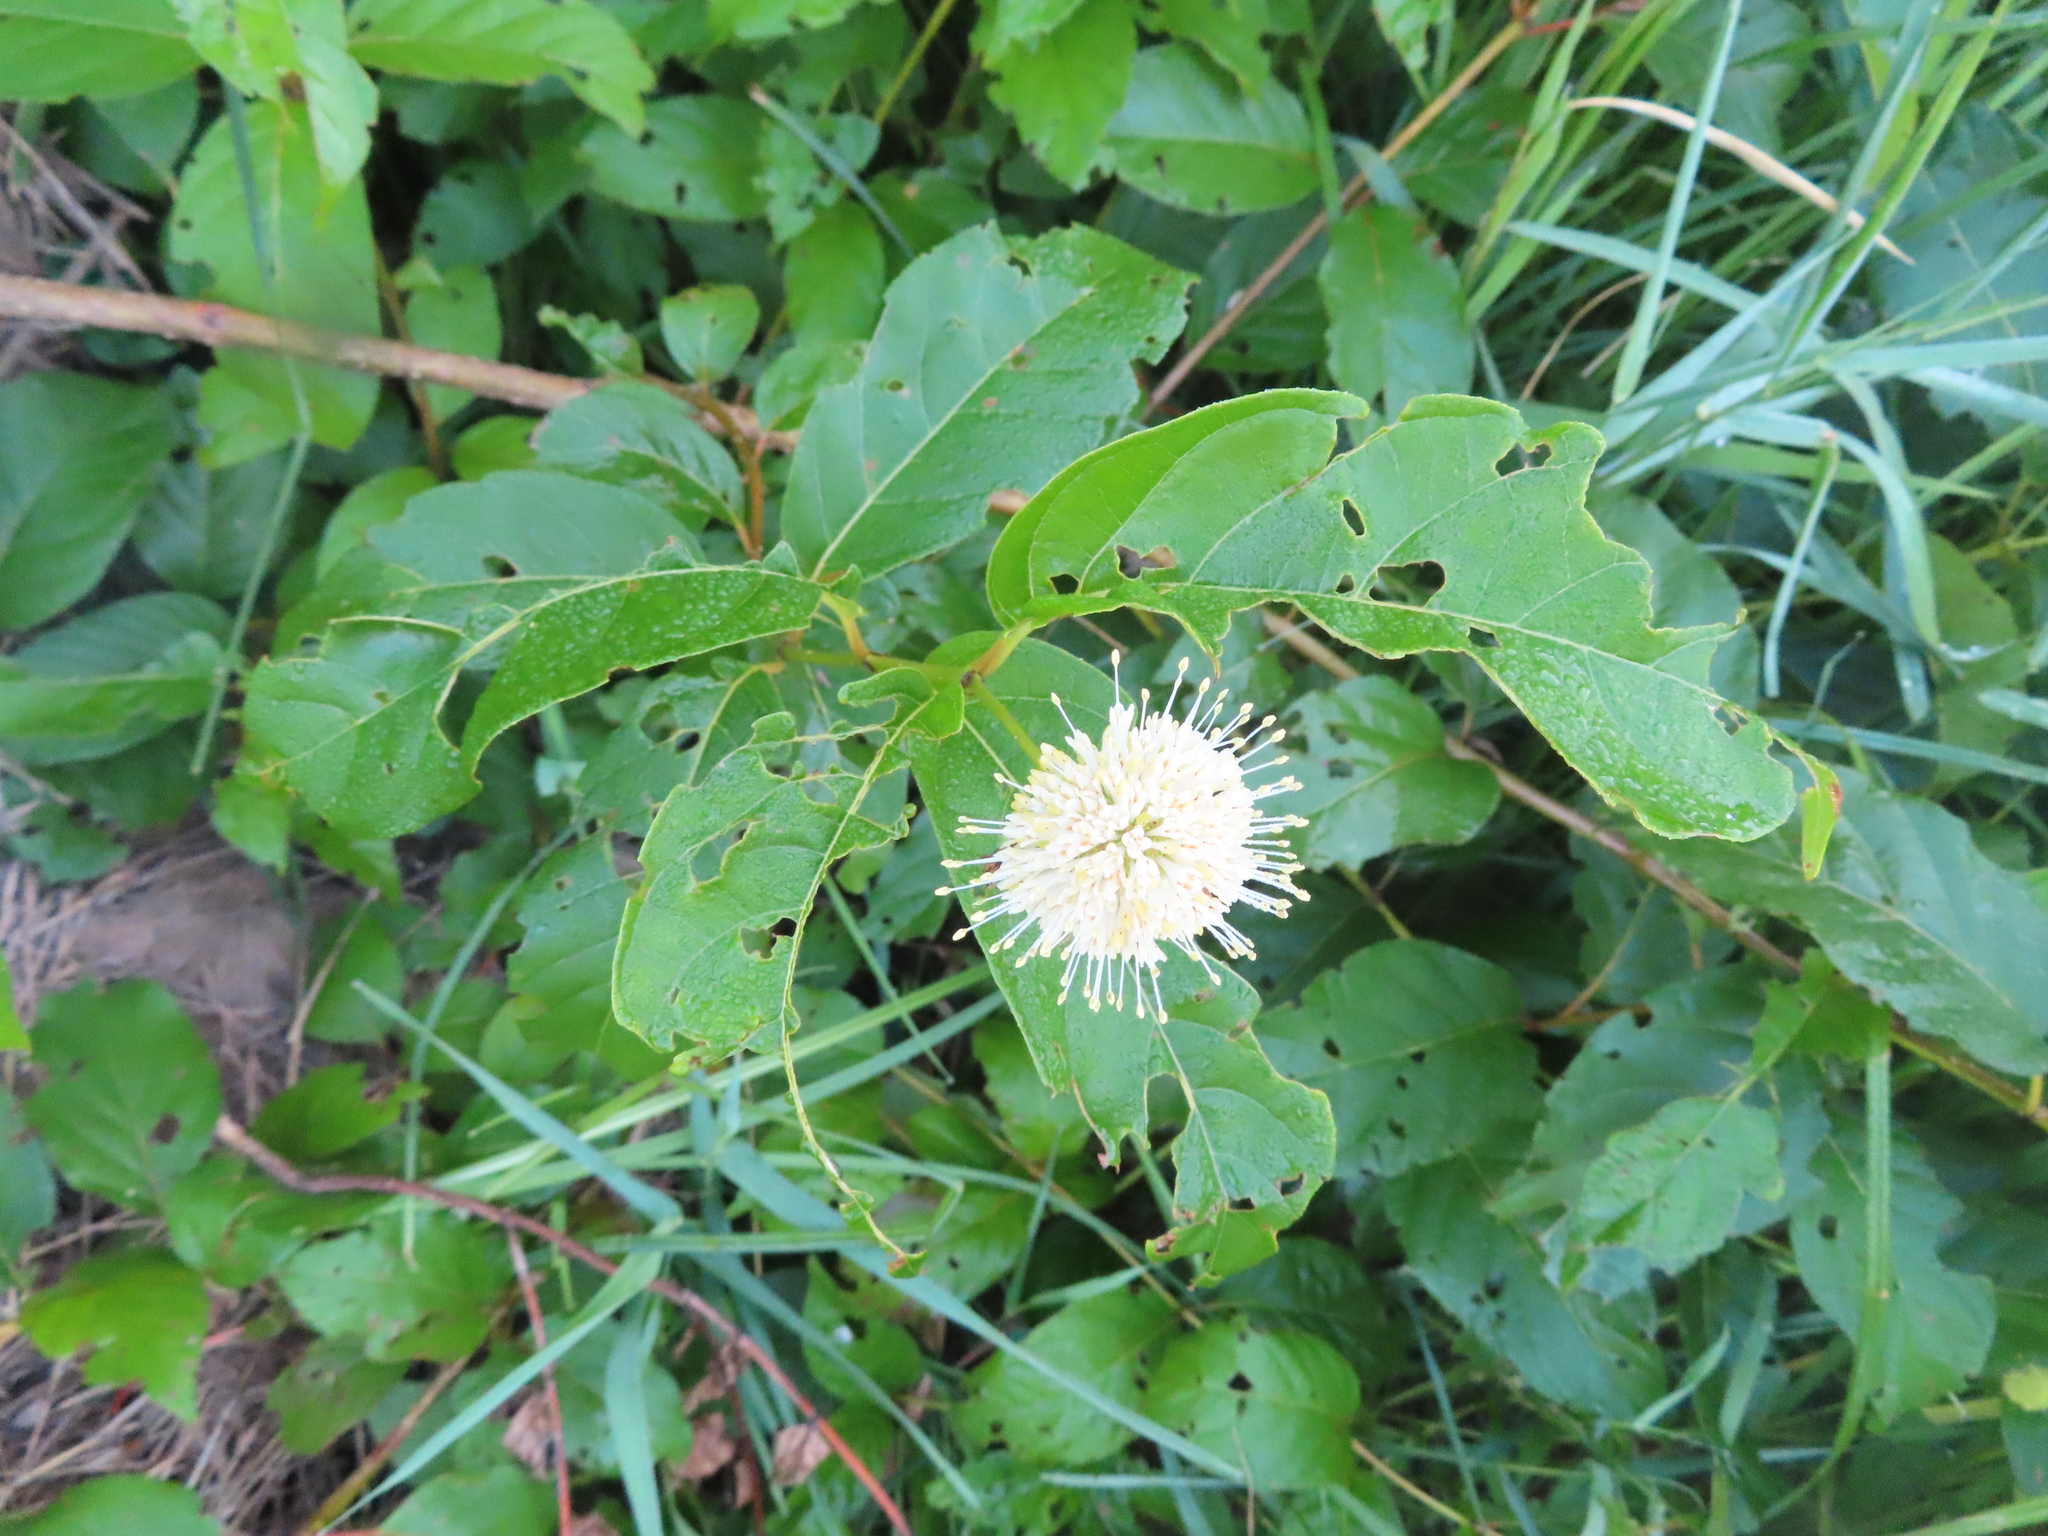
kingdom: Plantae
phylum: Tracheophyta
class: Magnoliopsida
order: Gentianales
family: Rubiaceae
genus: Cephalanthus
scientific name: Cephalanthus occidentalis
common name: Button-willow
